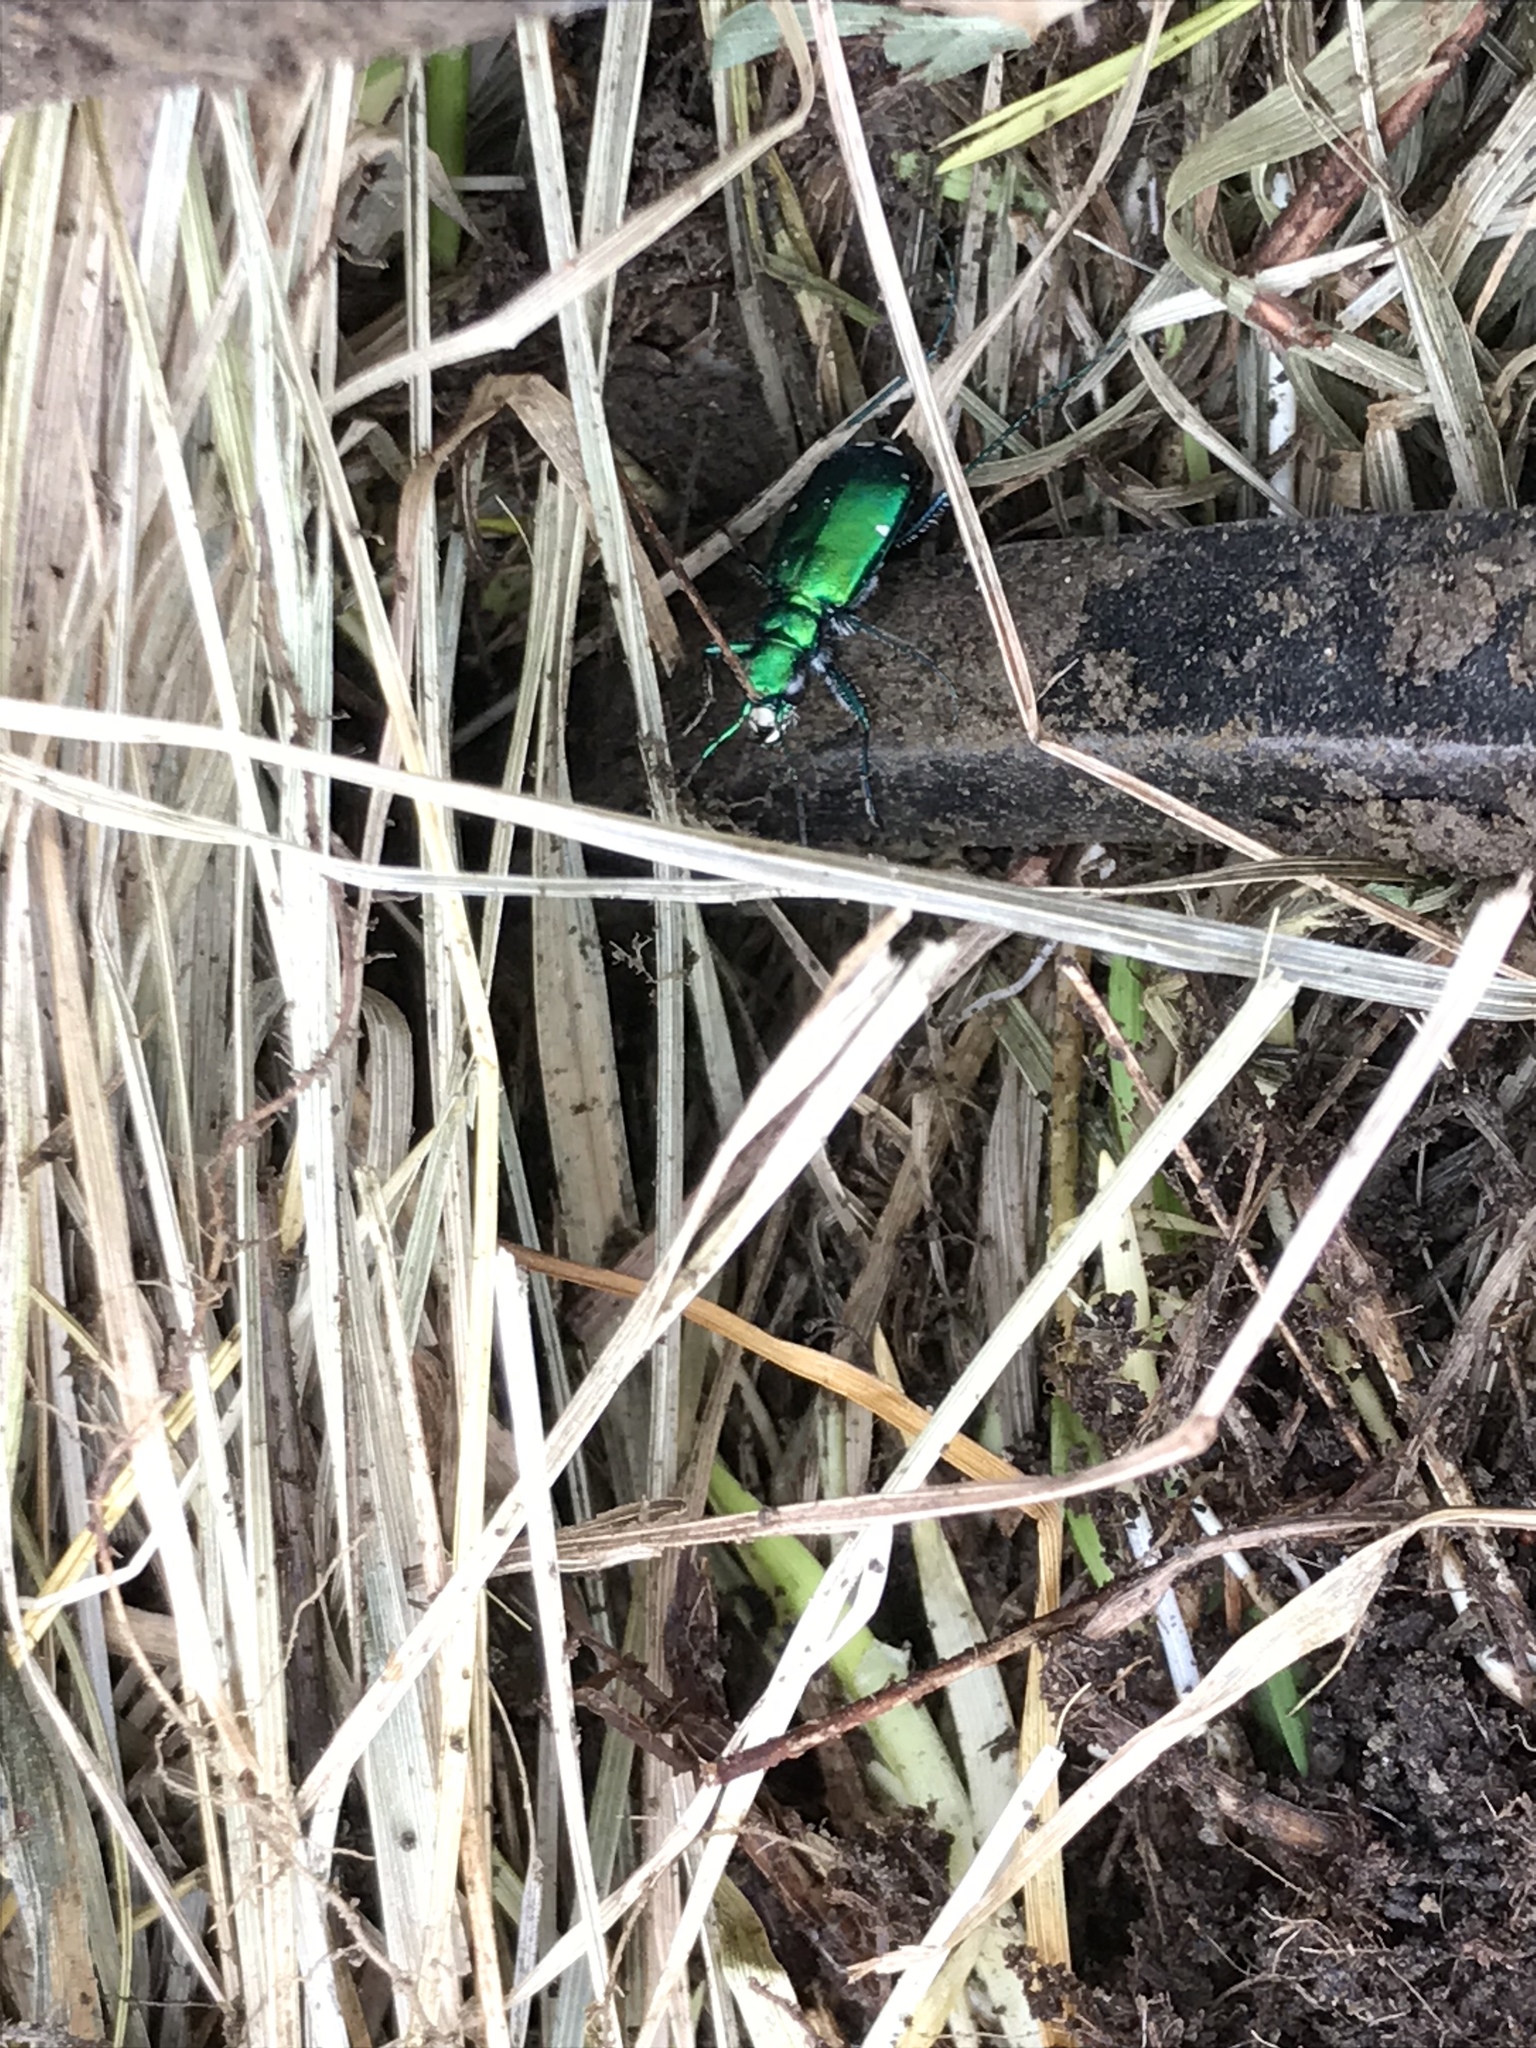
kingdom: Animalia
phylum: Arthropoda
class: Insecta
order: Coleoptera
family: Carabidae
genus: Cicindela
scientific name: Cicindela sexguttata
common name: Six-spotted tiger beetle
